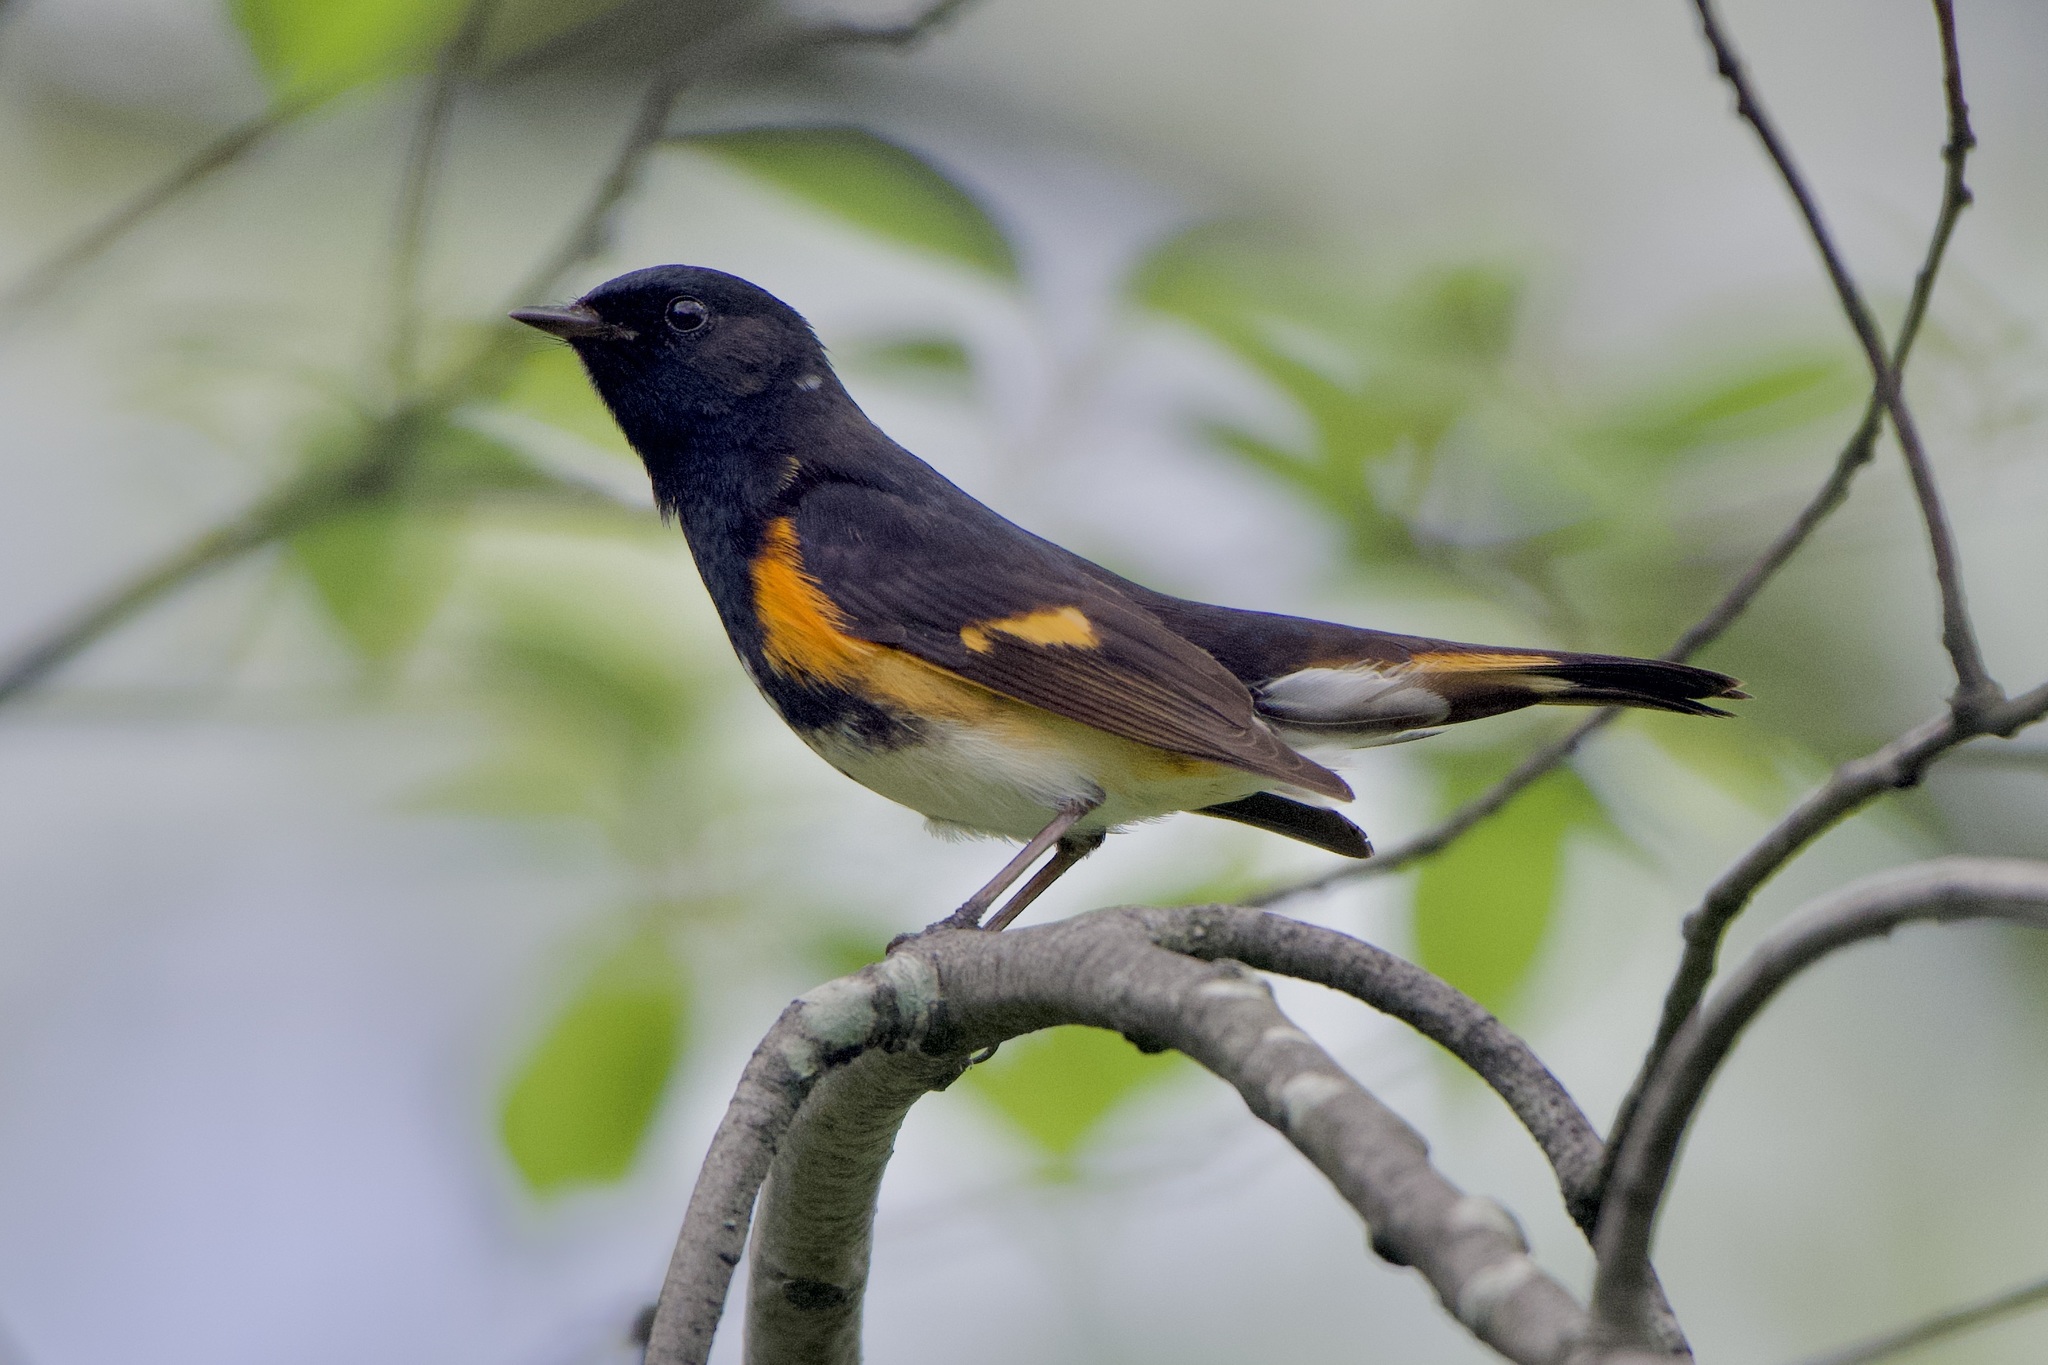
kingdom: Animalia
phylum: Chordata
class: Aves
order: Passeriformes
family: Parulidae
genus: Setophaga
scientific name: Setophaga ruticilla
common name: American redstart
